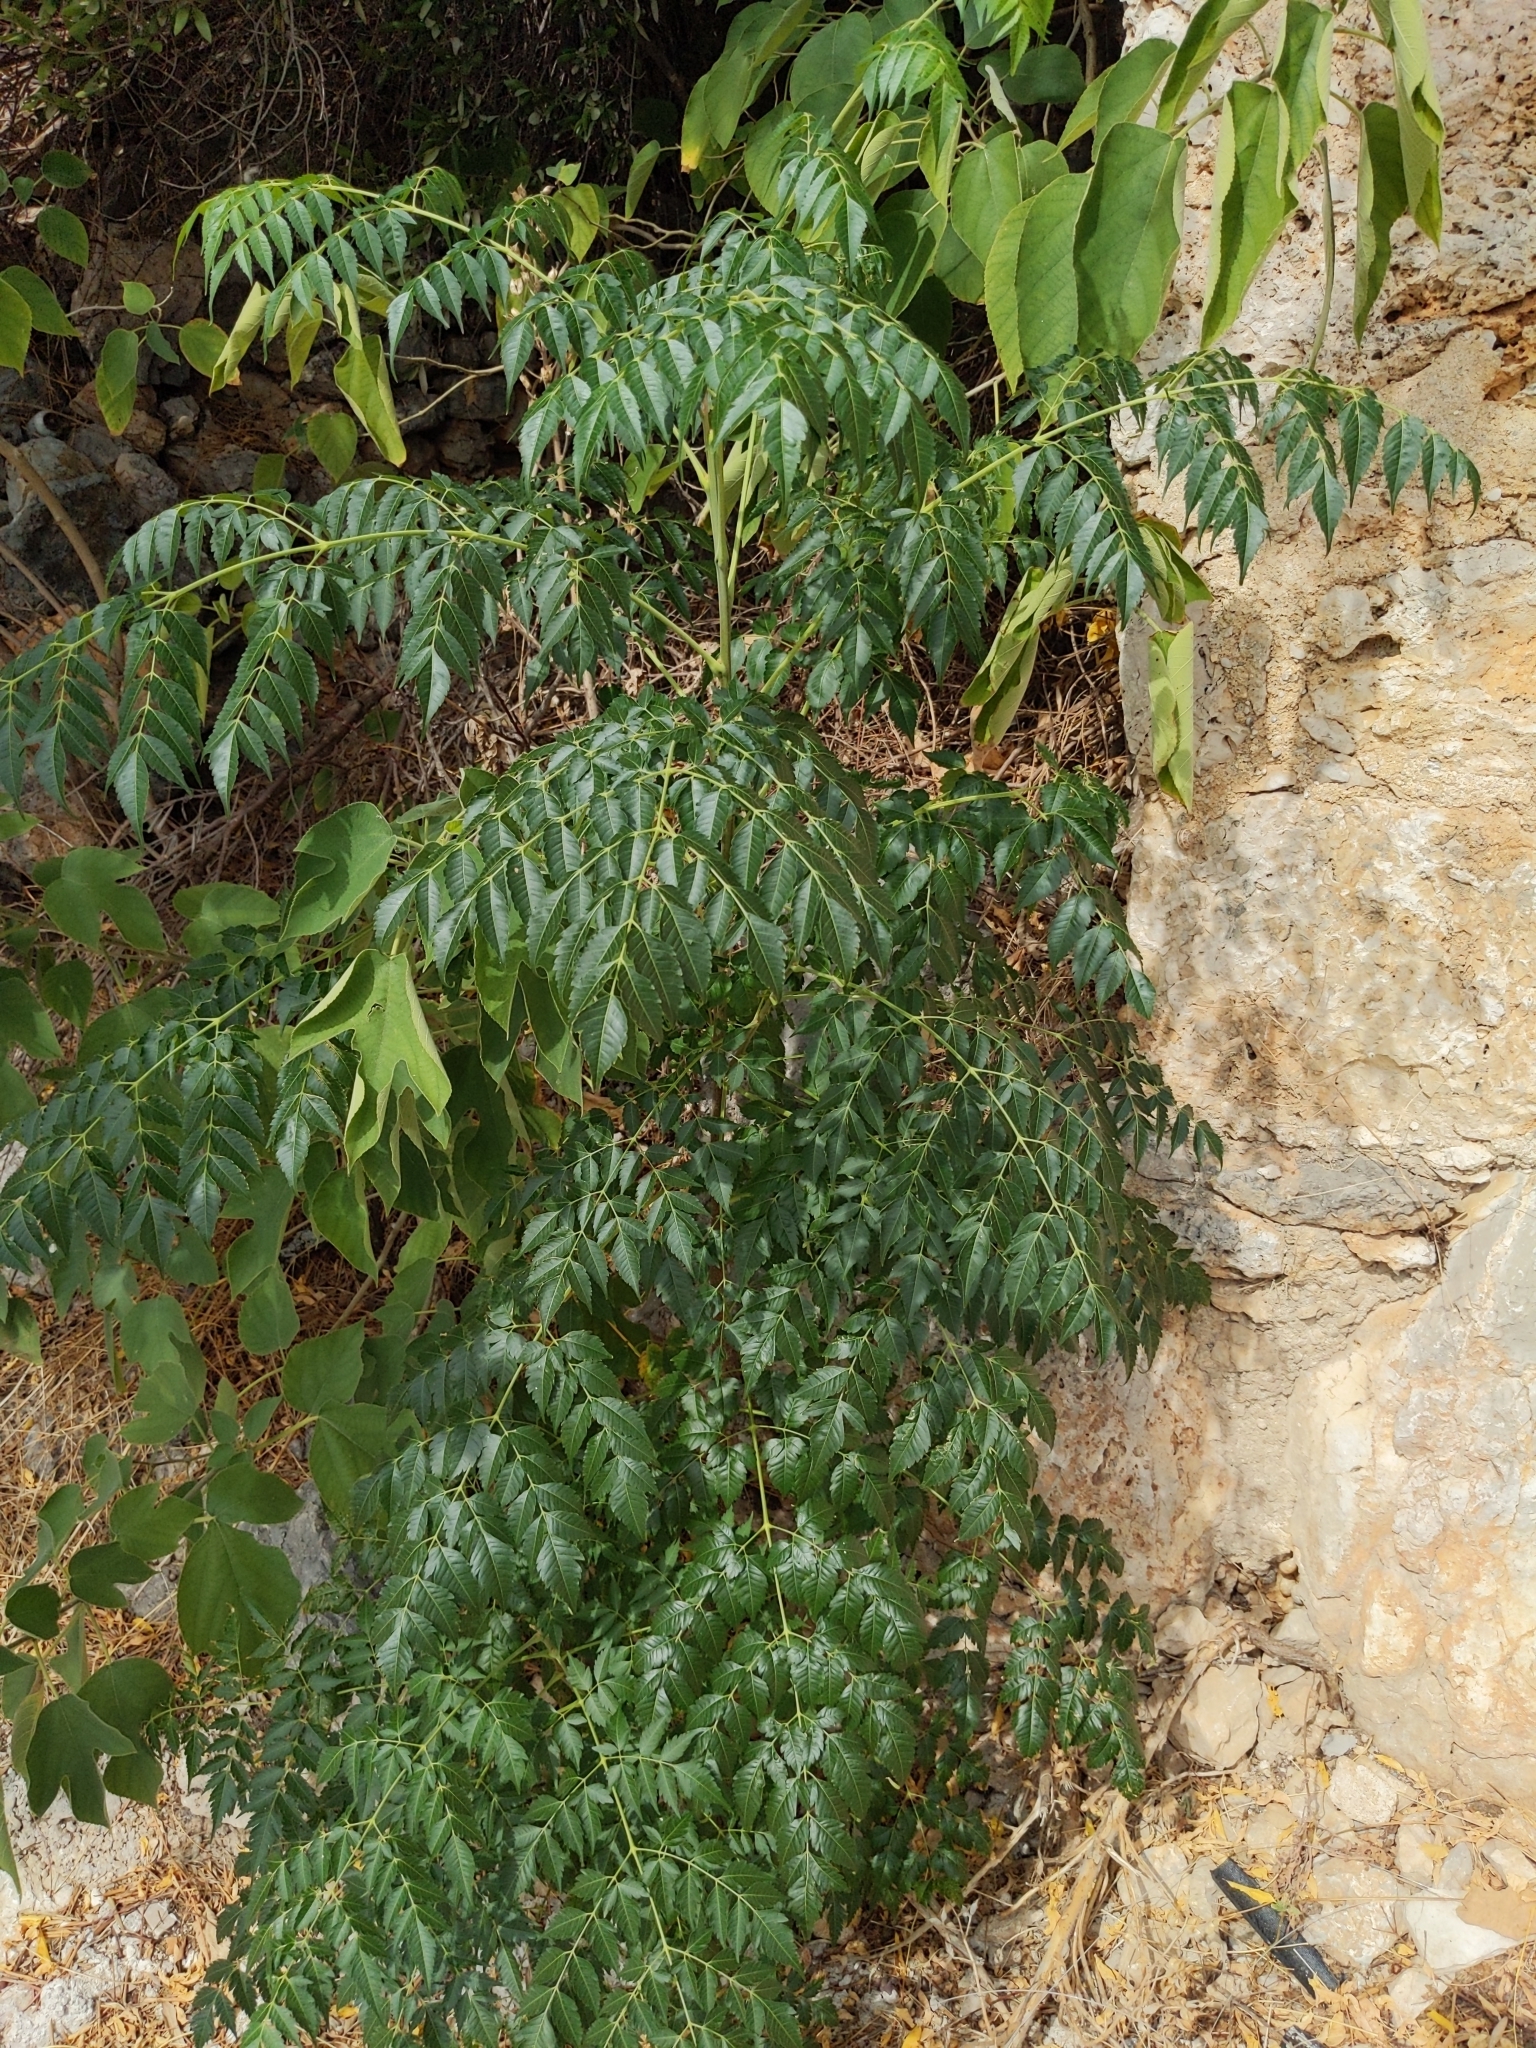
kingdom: Plantae
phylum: Tracheophyta
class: Magnoliopsida
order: Sapindales
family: Meliaceae
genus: Melia
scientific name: Melia azedarach
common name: Chinaberrytree
